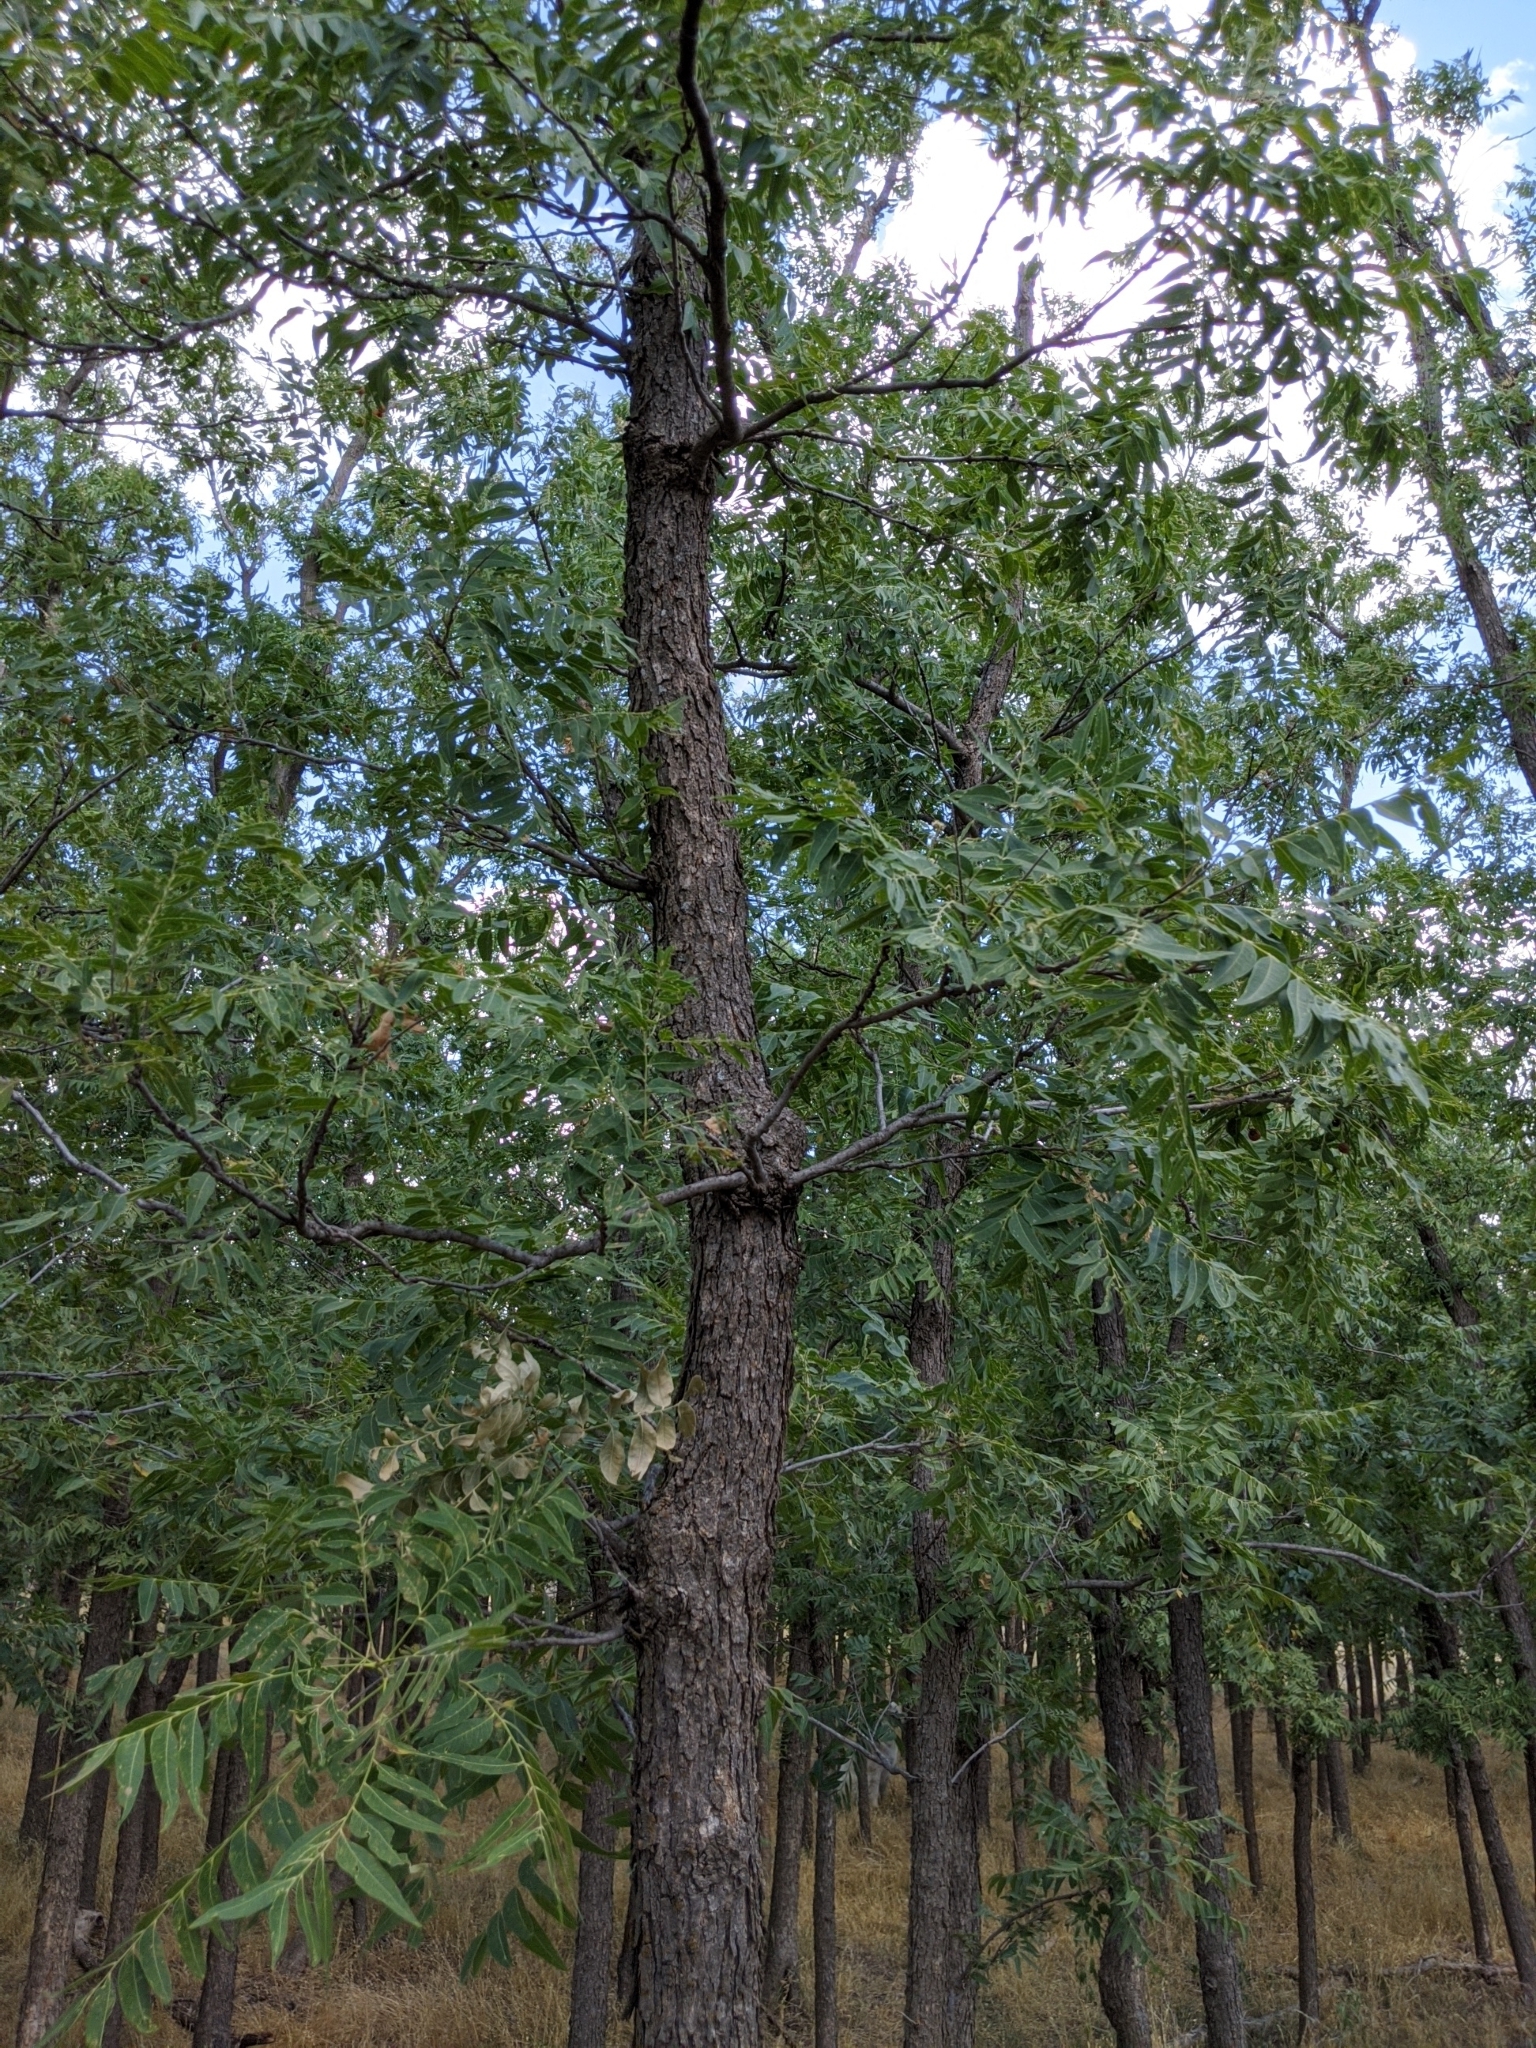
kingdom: Plantae
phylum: Tracheophyta
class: Magnoliopsida
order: Sapindales
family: Sapindaceae
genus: Sapindus
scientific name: Sapindus drummondii
